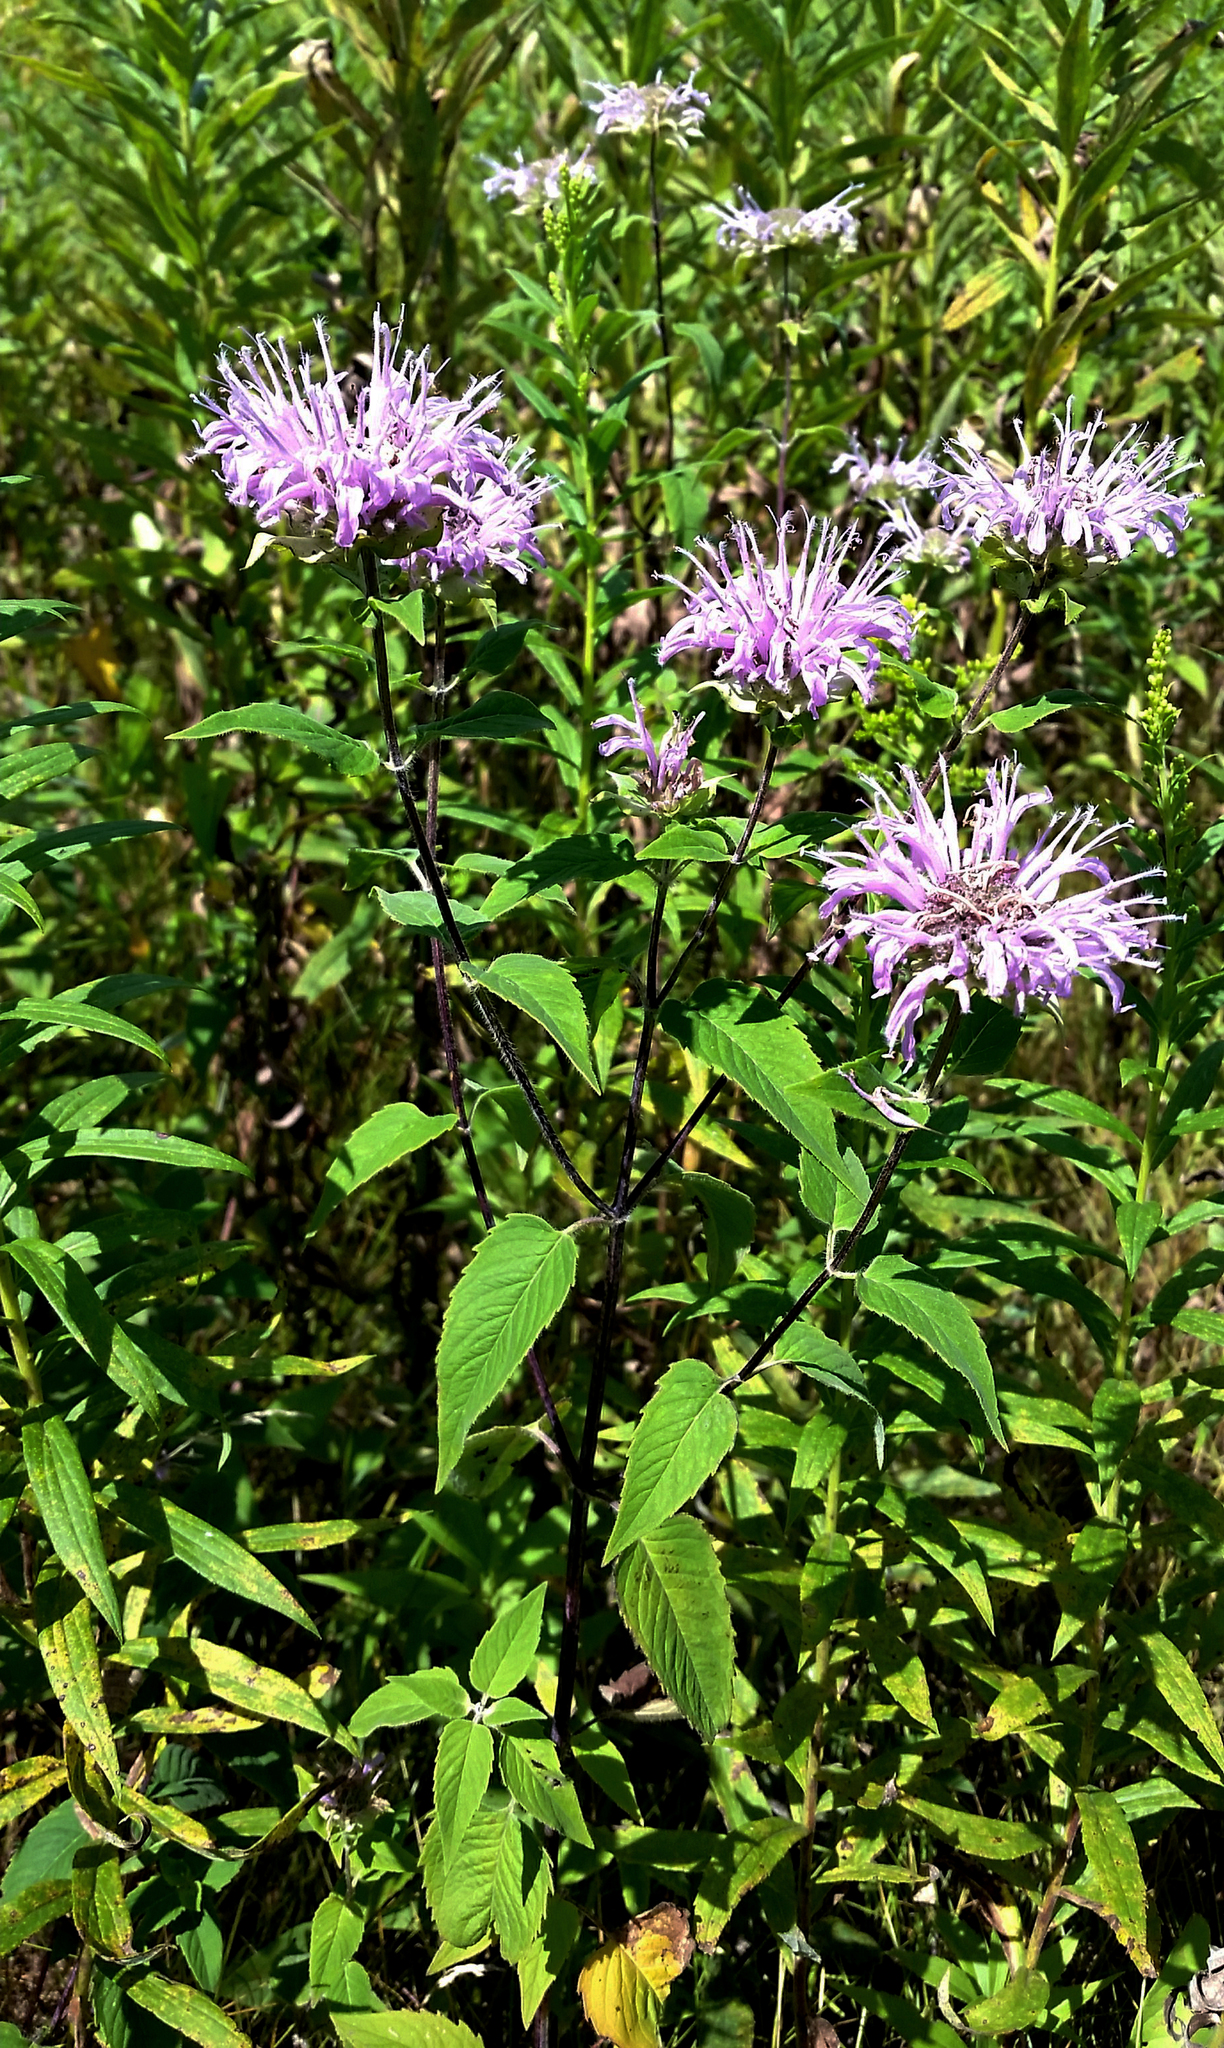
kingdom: Plantae
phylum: Tracheophyta
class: Magnoliopsida
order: Lamiales
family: Lamiaceae
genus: Monarda
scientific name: Monarda fistulosa
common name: Purple beebalm
